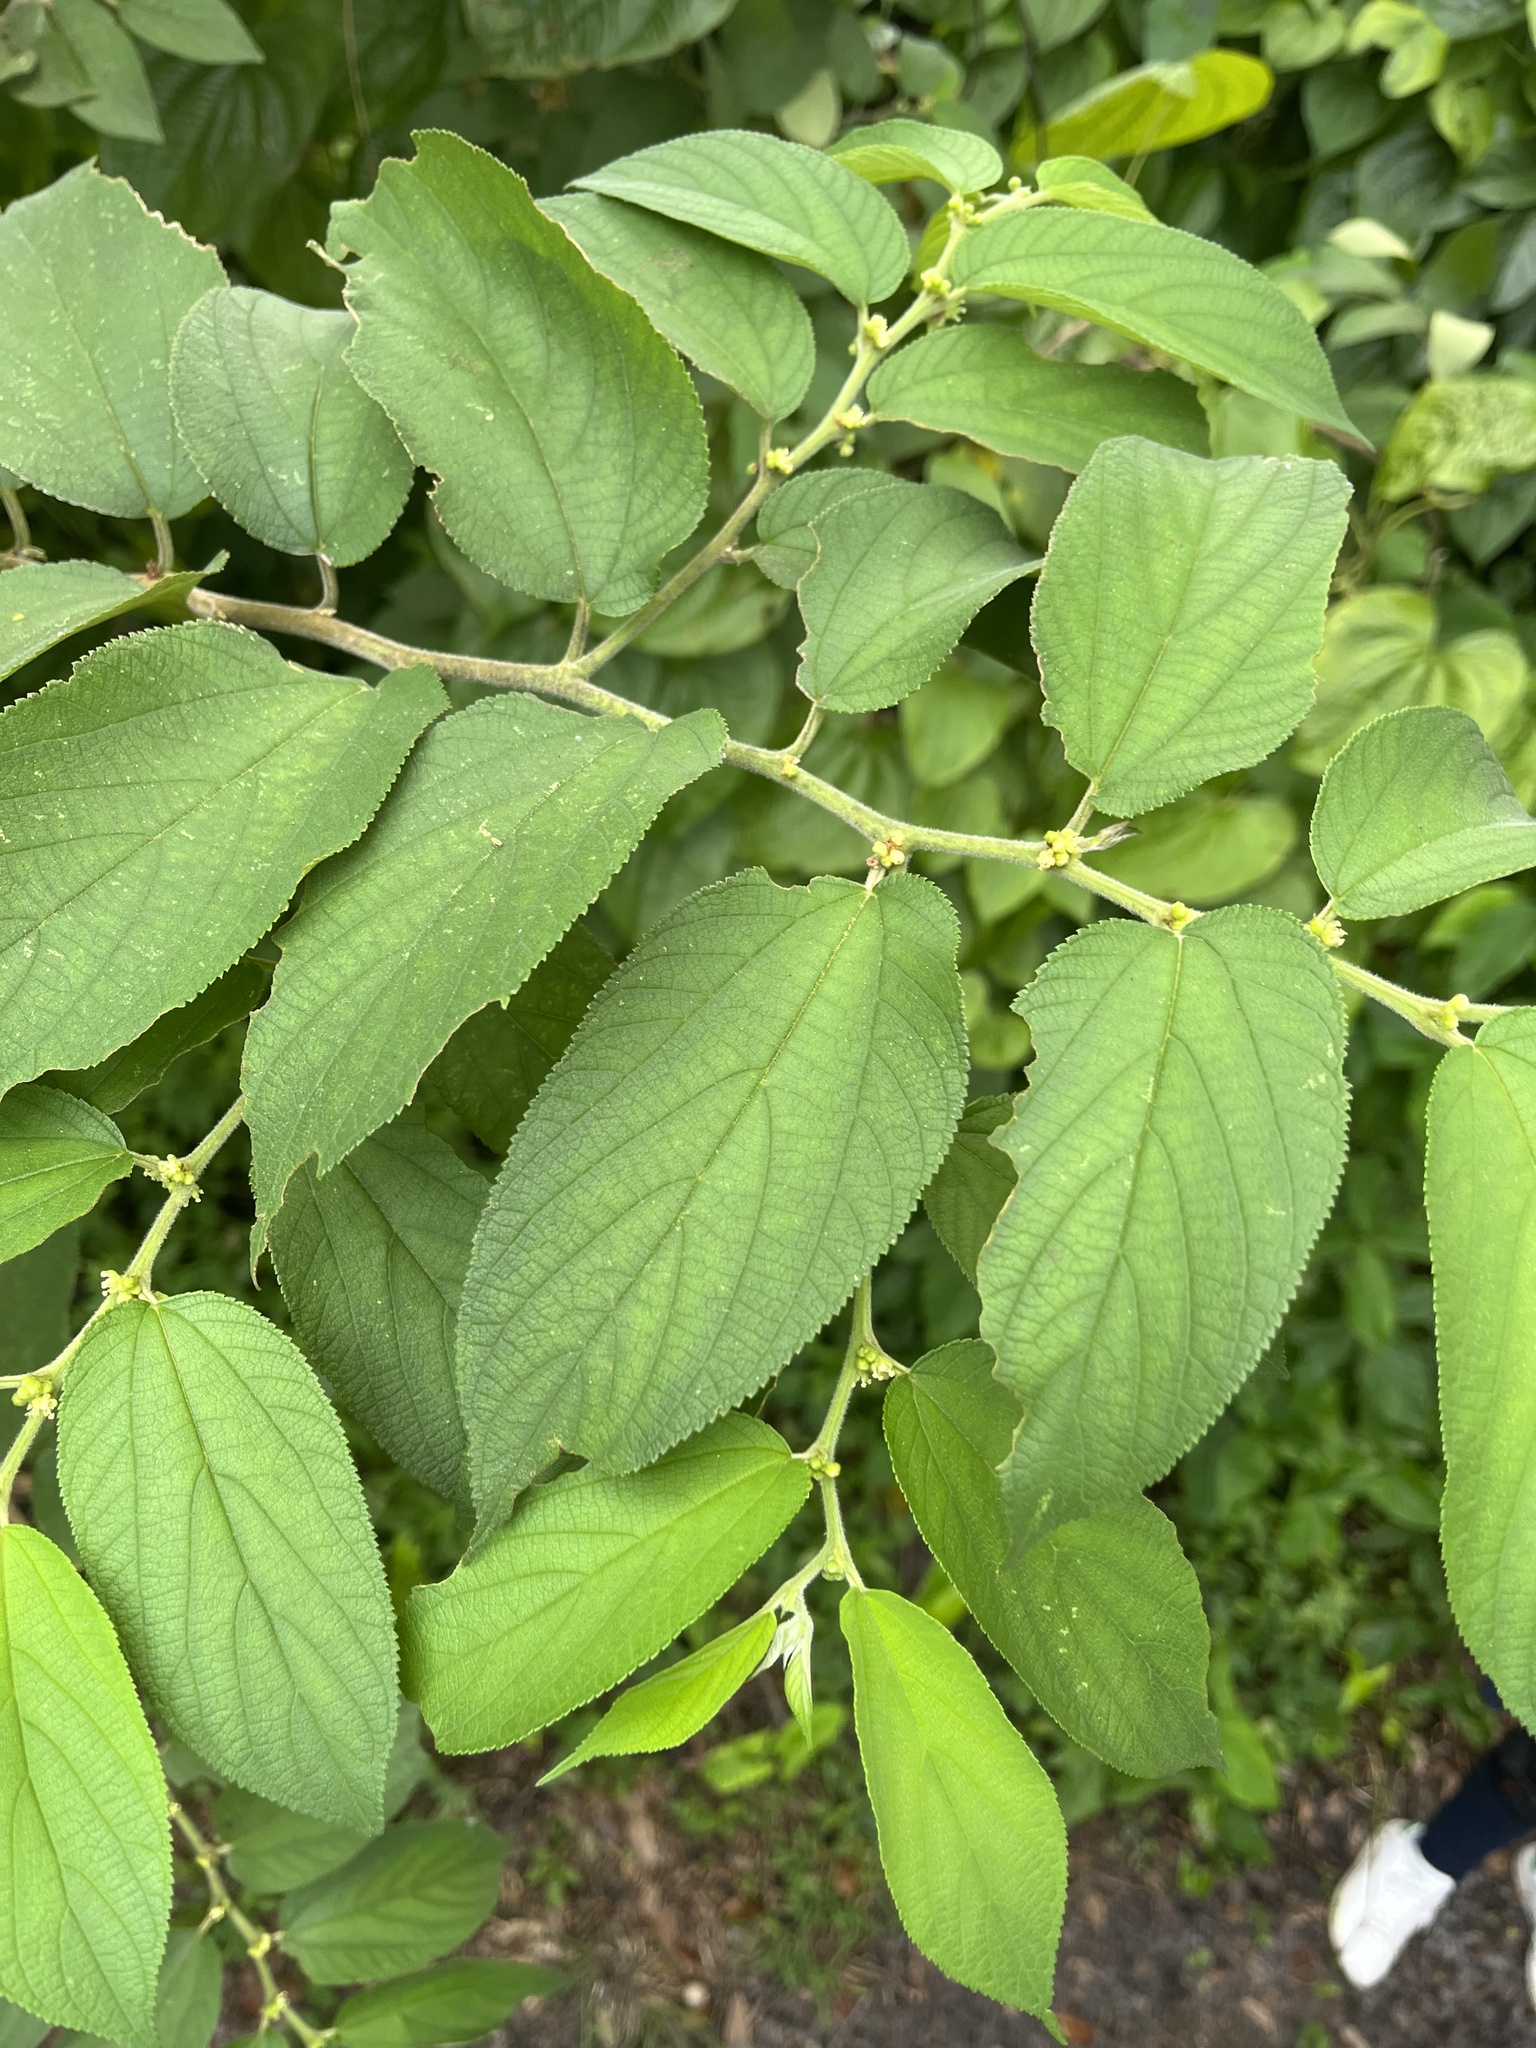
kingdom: Plantae
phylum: Tracheophyta
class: Magnoliopsida
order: Rosales
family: Cannabaceae
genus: Trema
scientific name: Trema micranthum
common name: Jamaican nettletree
